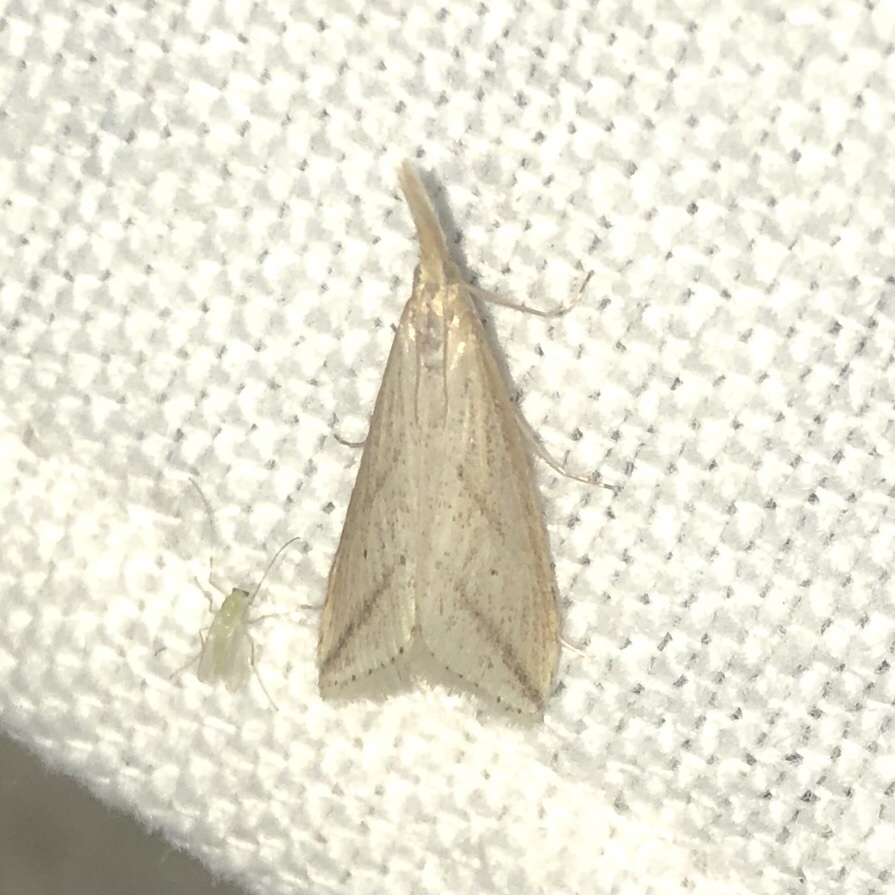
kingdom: Animalia
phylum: Arthropoda
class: Insecta
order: Lepidoptera
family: Crambidae
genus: Donacaula
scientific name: Donacaula longirostrallus
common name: Long-beaked donacaula moth
